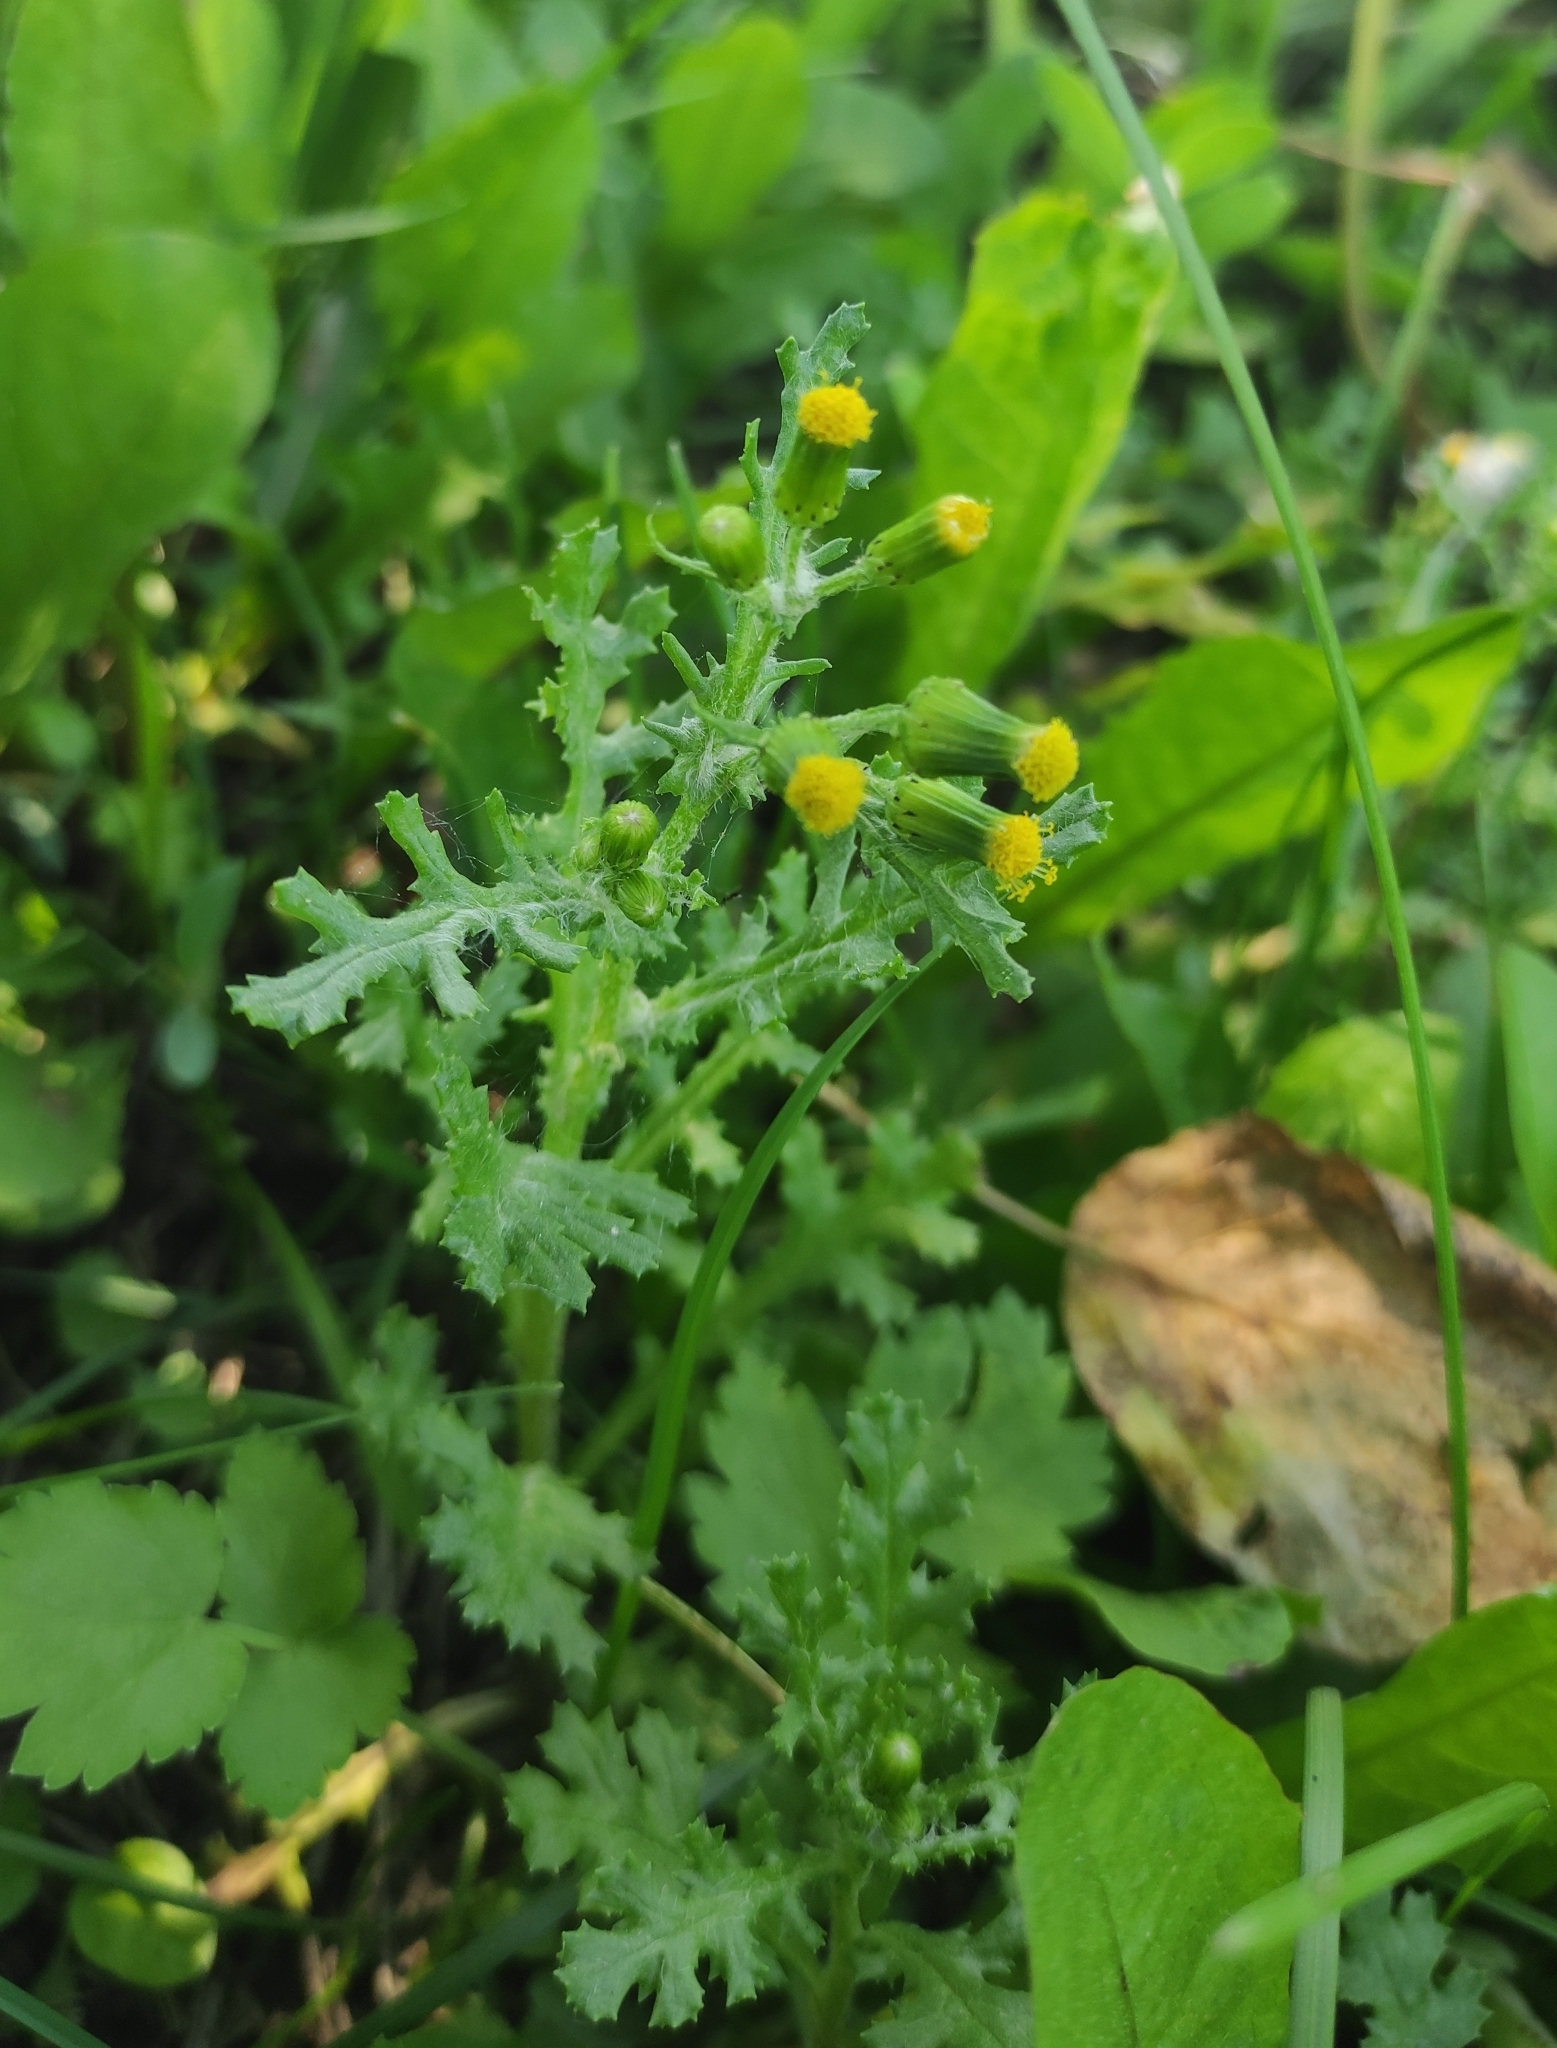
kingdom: Plantae
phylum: Tracheophyta
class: Magnoliopsida
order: Asterales
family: Asteraceae
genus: Senecio
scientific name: Senecio vulgaris
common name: Old-man-in-the-spring
